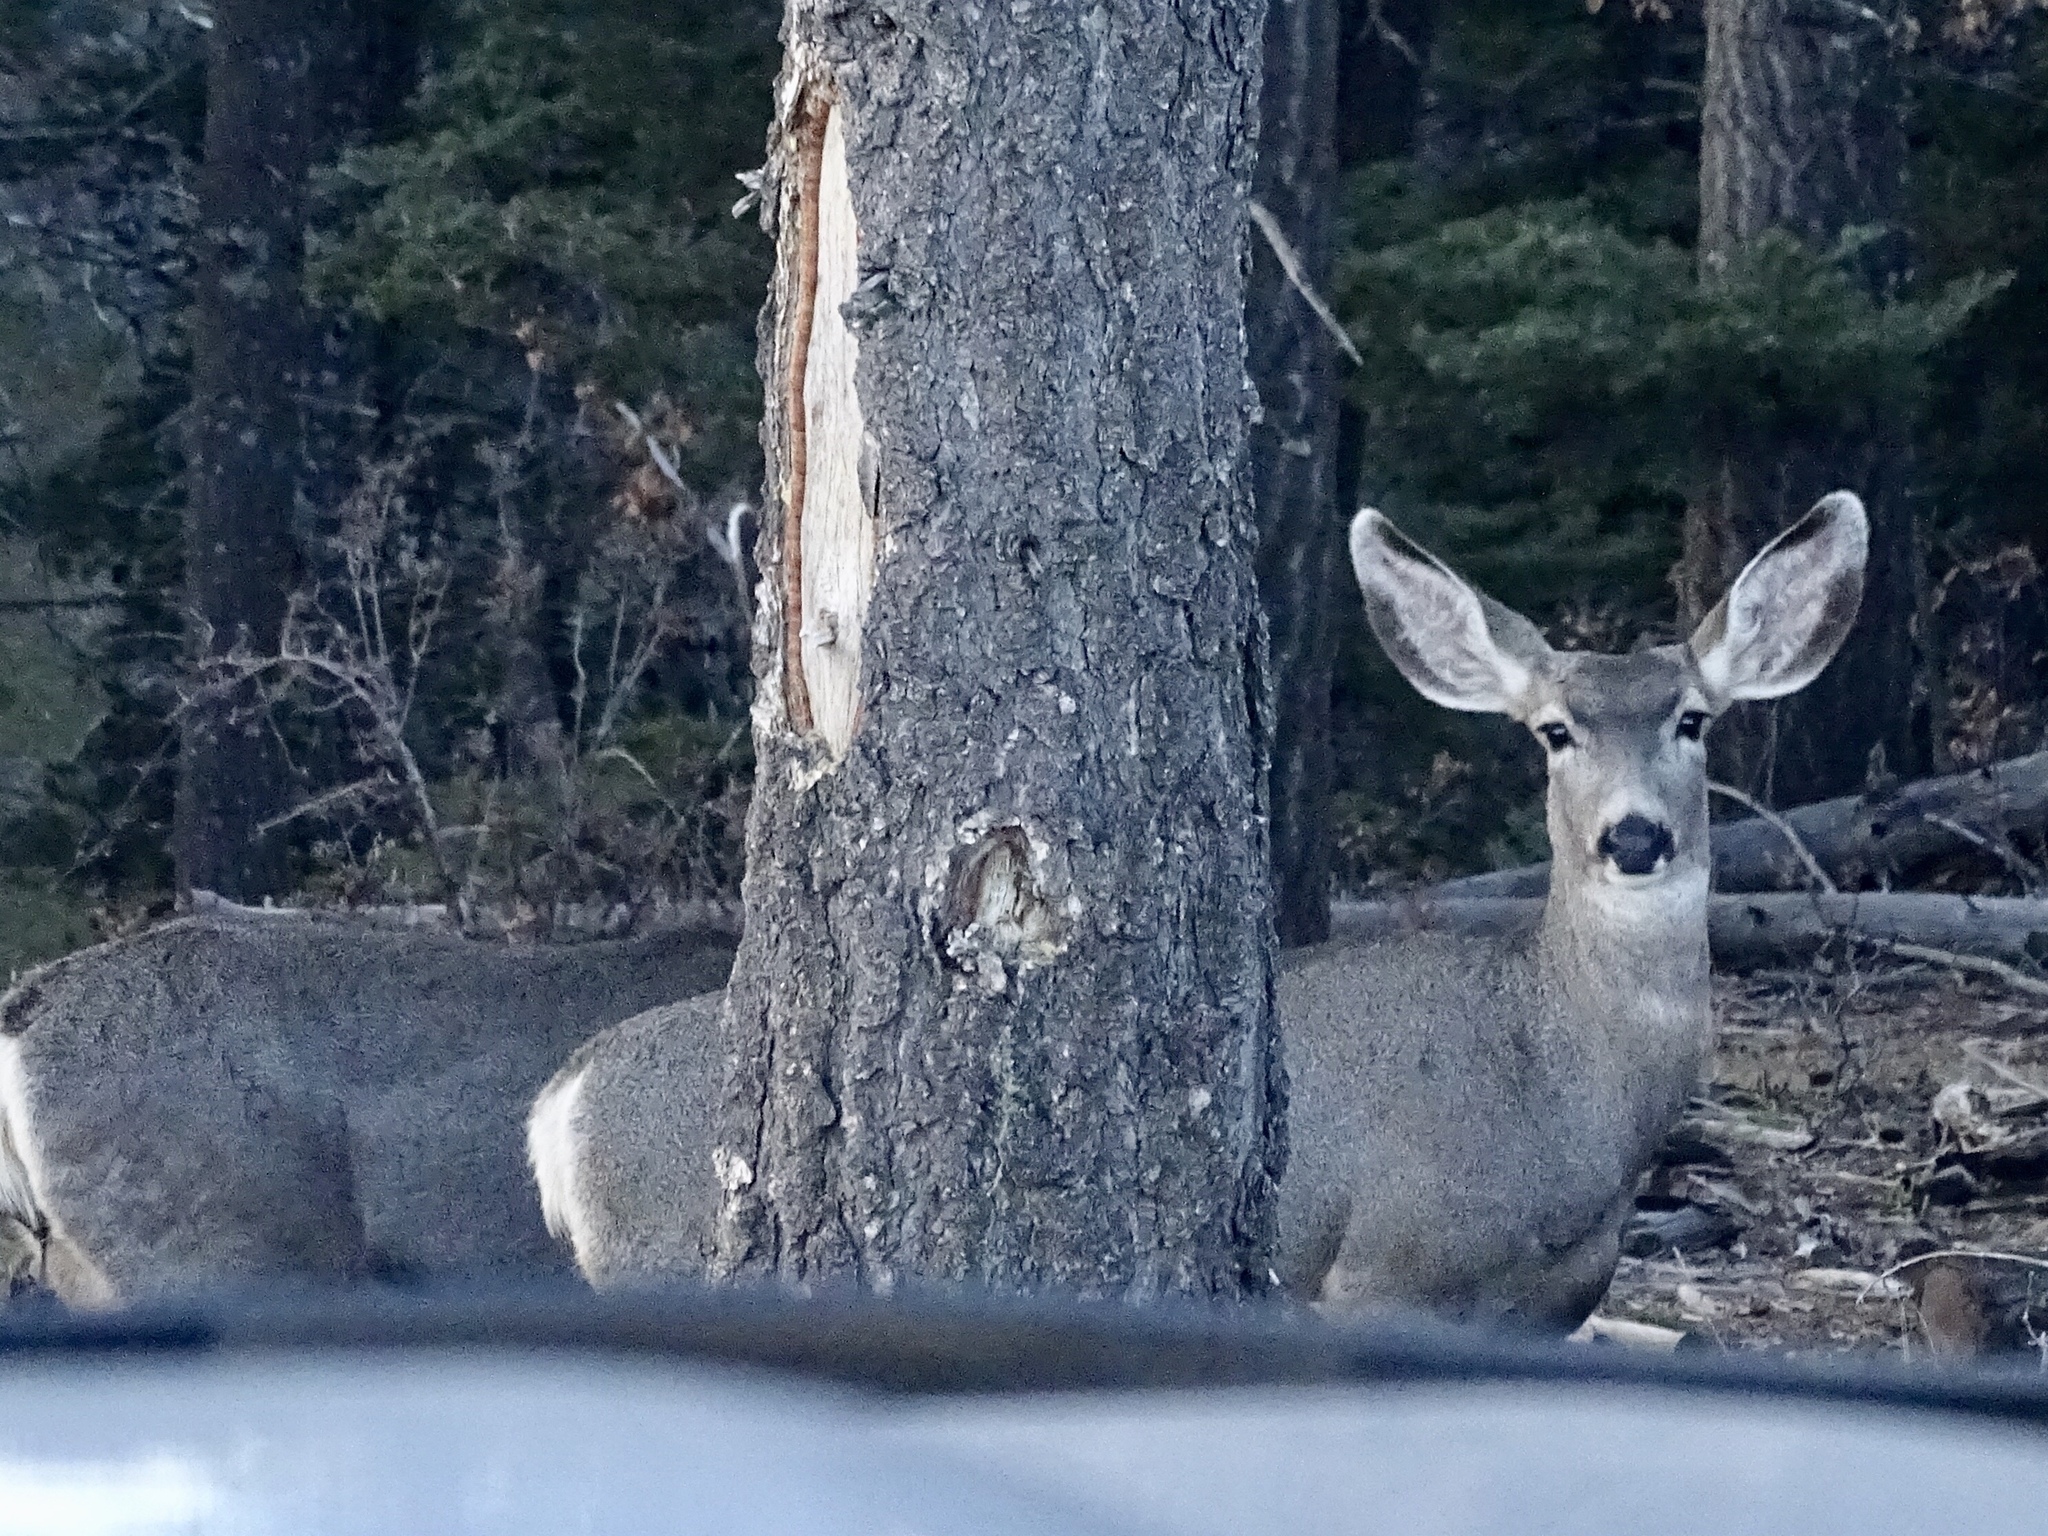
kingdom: Animalia
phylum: Chordata
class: Mammalia
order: Artiodactyla
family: Cervidae
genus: Odocoileus
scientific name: Odocoileus hemionus
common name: Mule deer
